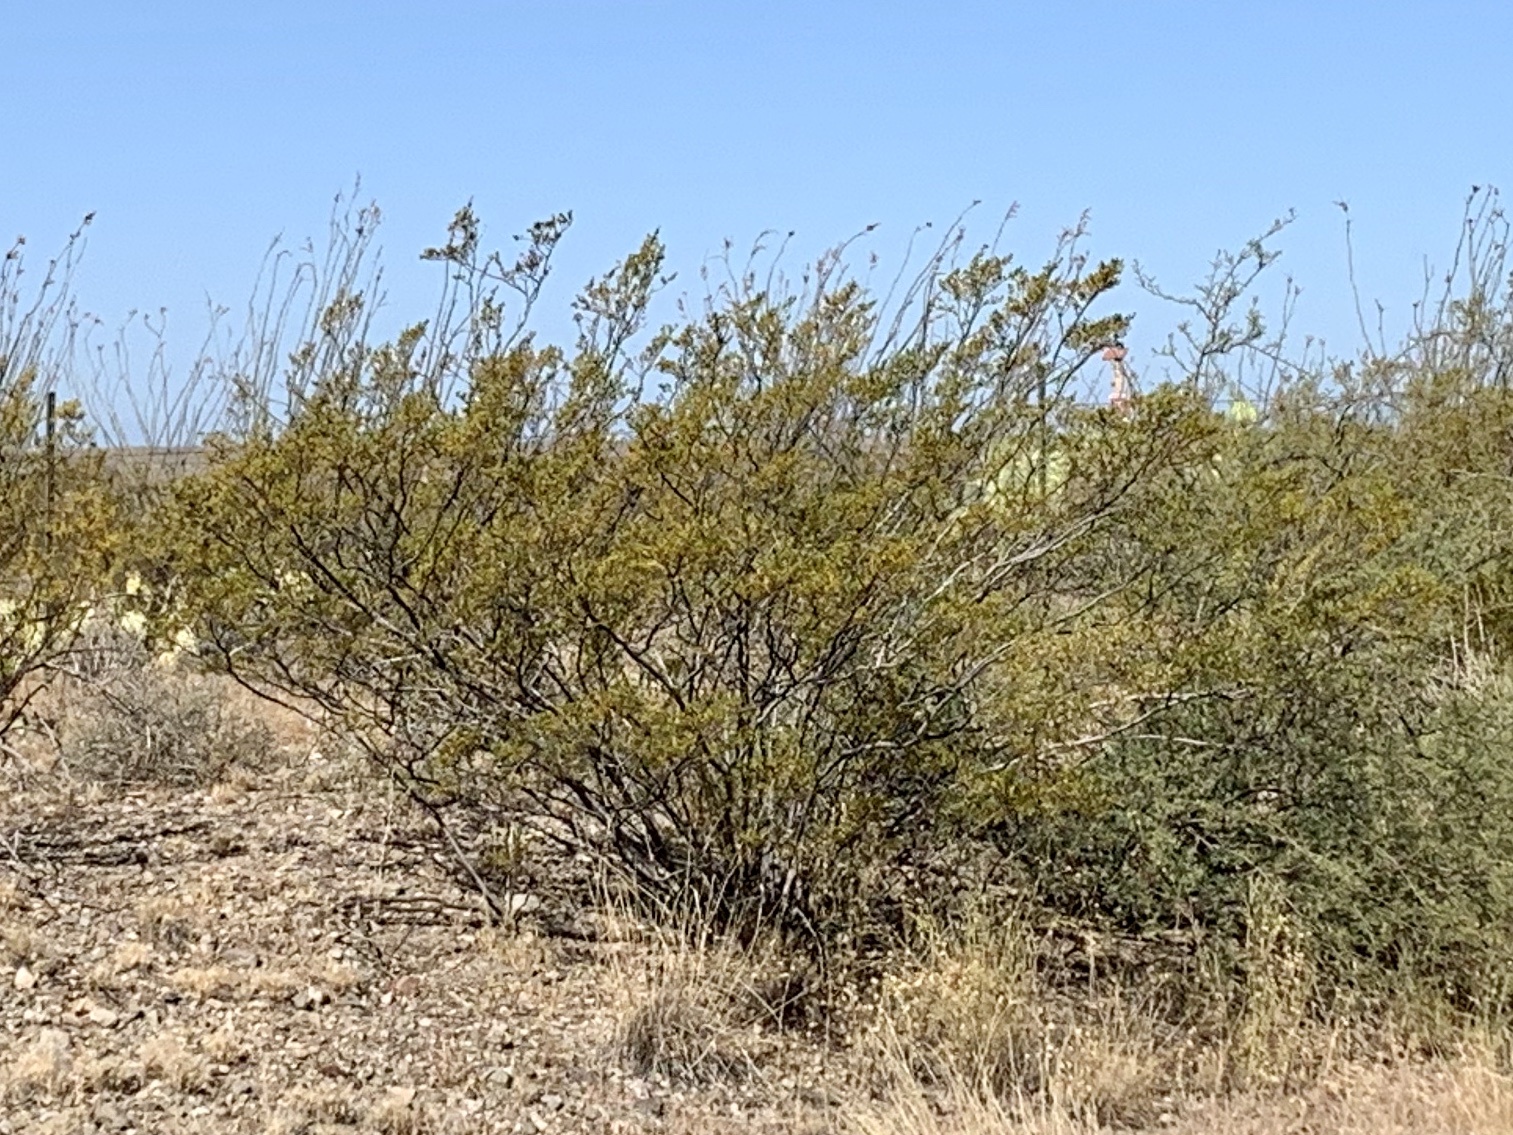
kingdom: Plantae
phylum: Tracheophyta
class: Magnoliopsida
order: Zygophyllales
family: Zygophyllaceae
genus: Larrea
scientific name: Larrea tridentata
